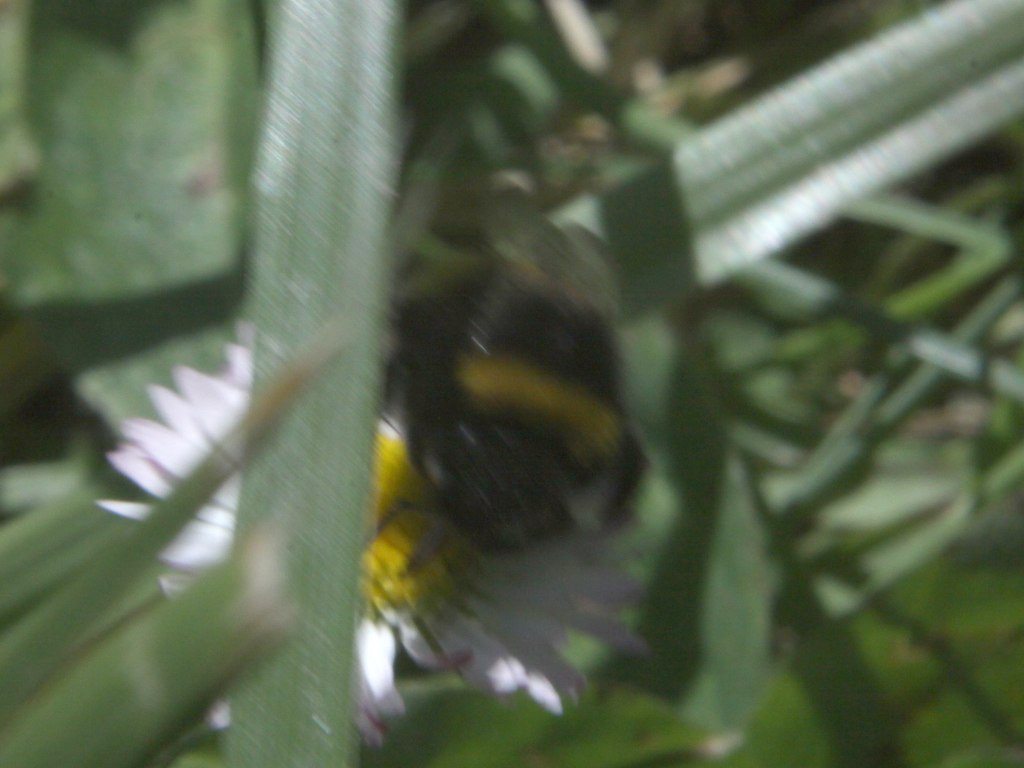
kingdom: Animalia
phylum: Arthropoda
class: Insecta
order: Hymenoptera
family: Apidae
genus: Bombus
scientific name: Bombus terrestris
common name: Buff-tailed bumblebee
